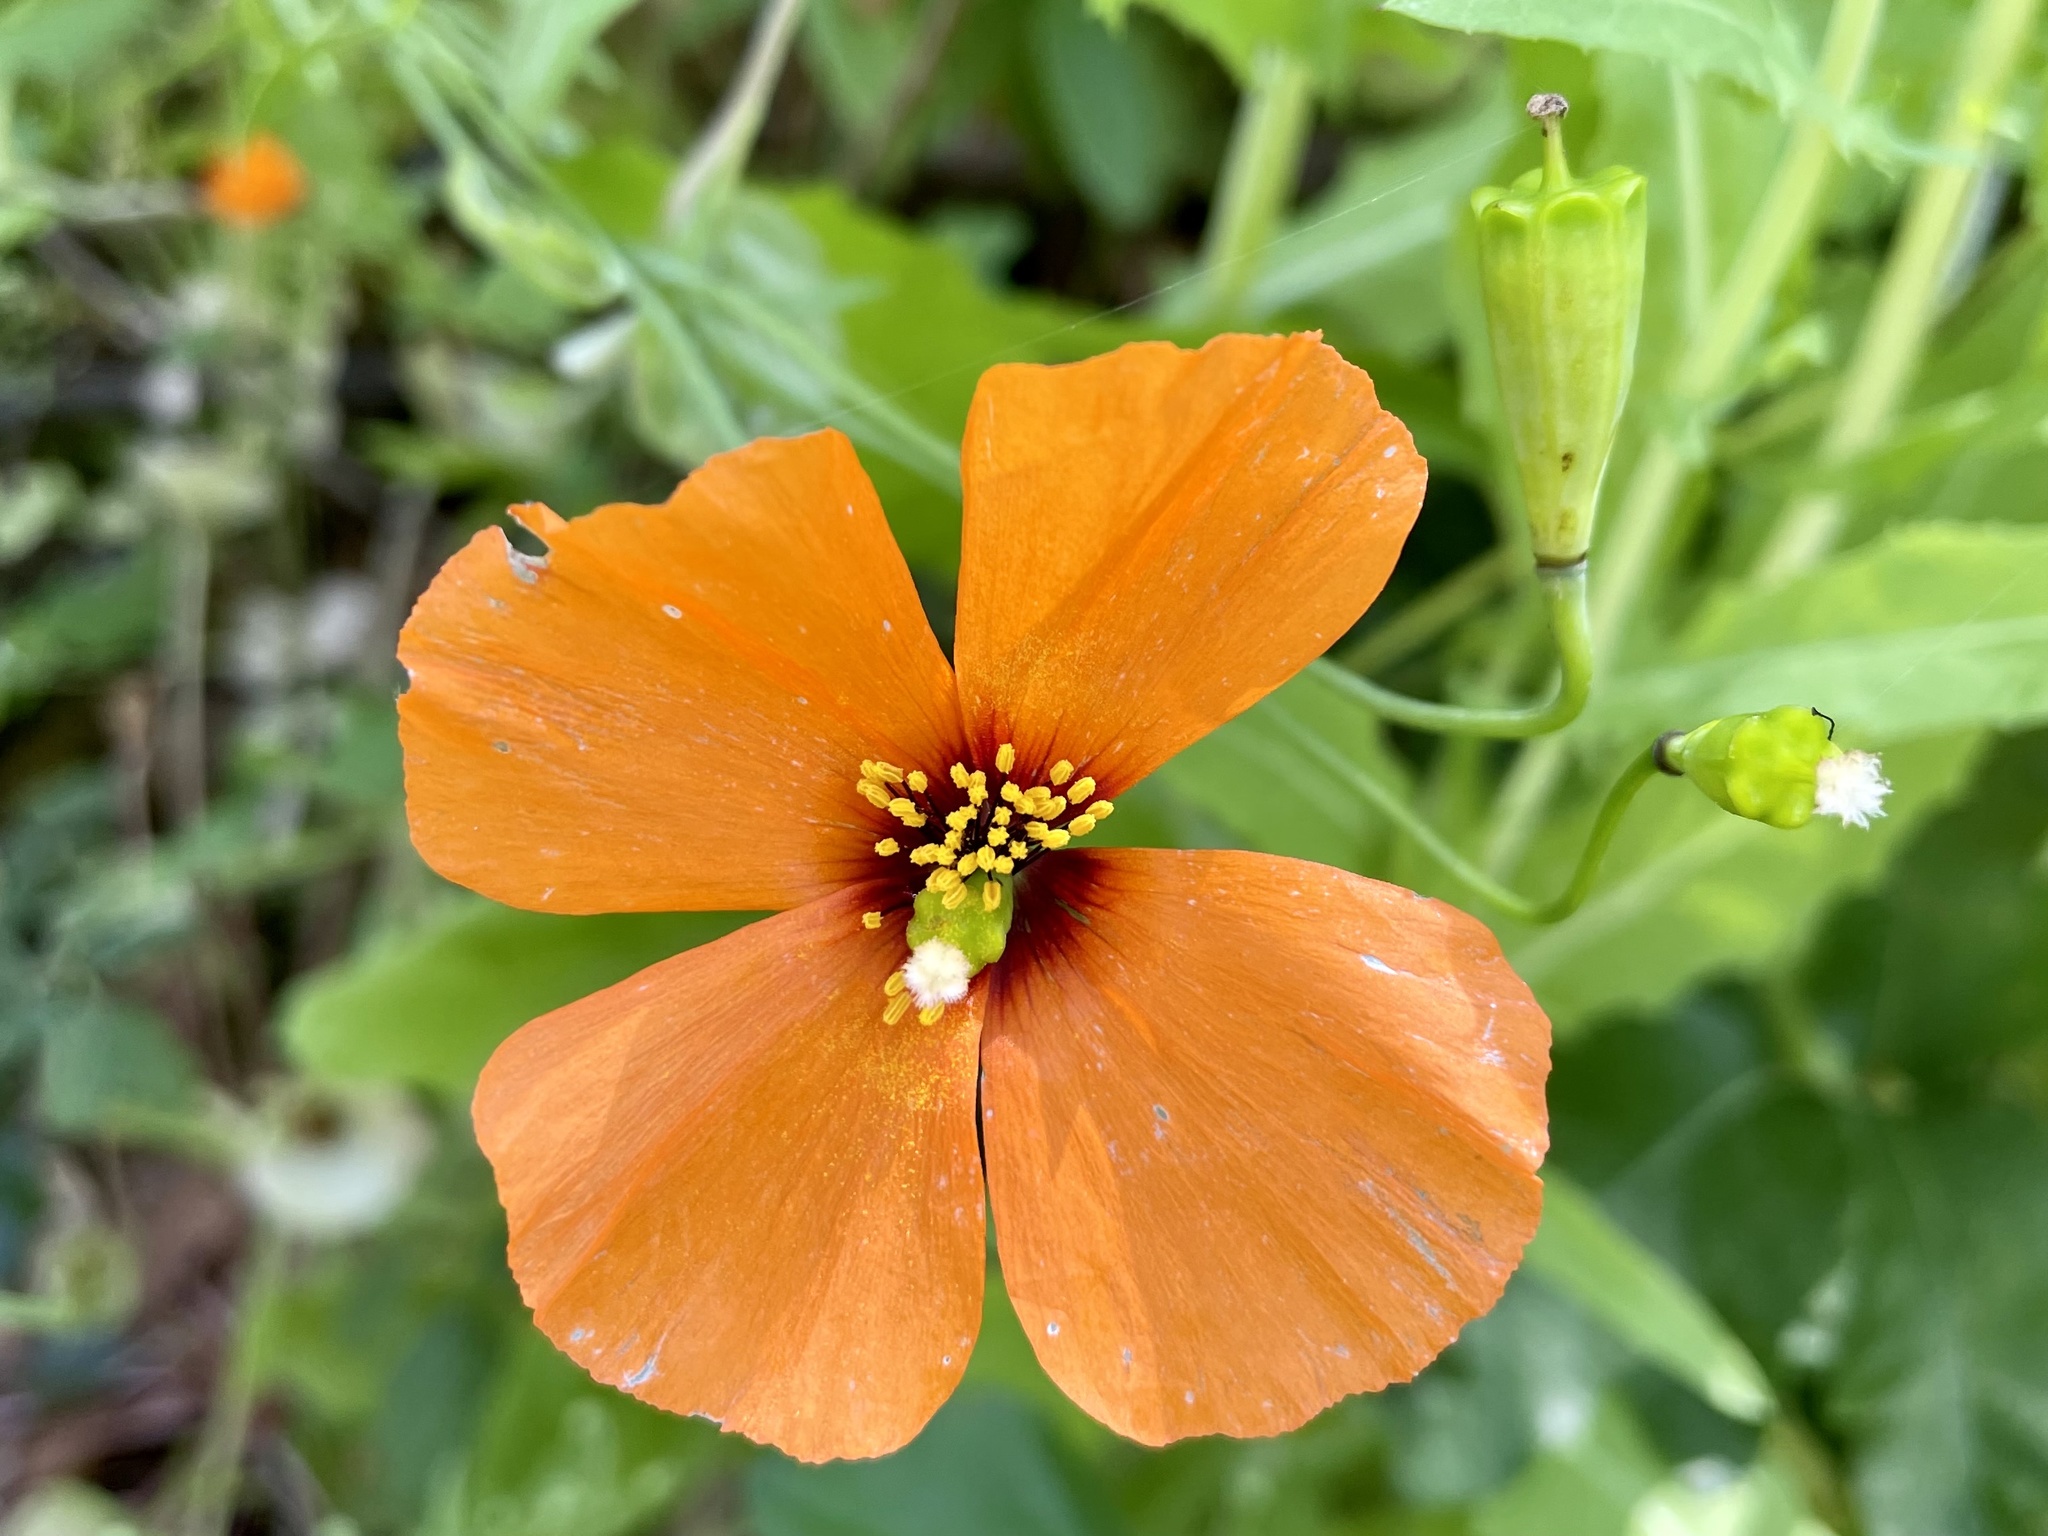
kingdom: Plantae
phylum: Tracheophyta
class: Magnoliopsida
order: Ranunculales
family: Papaveraceae
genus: Stylomecon
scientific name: Stylomecon heterophylla
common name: Flaming-poppy
